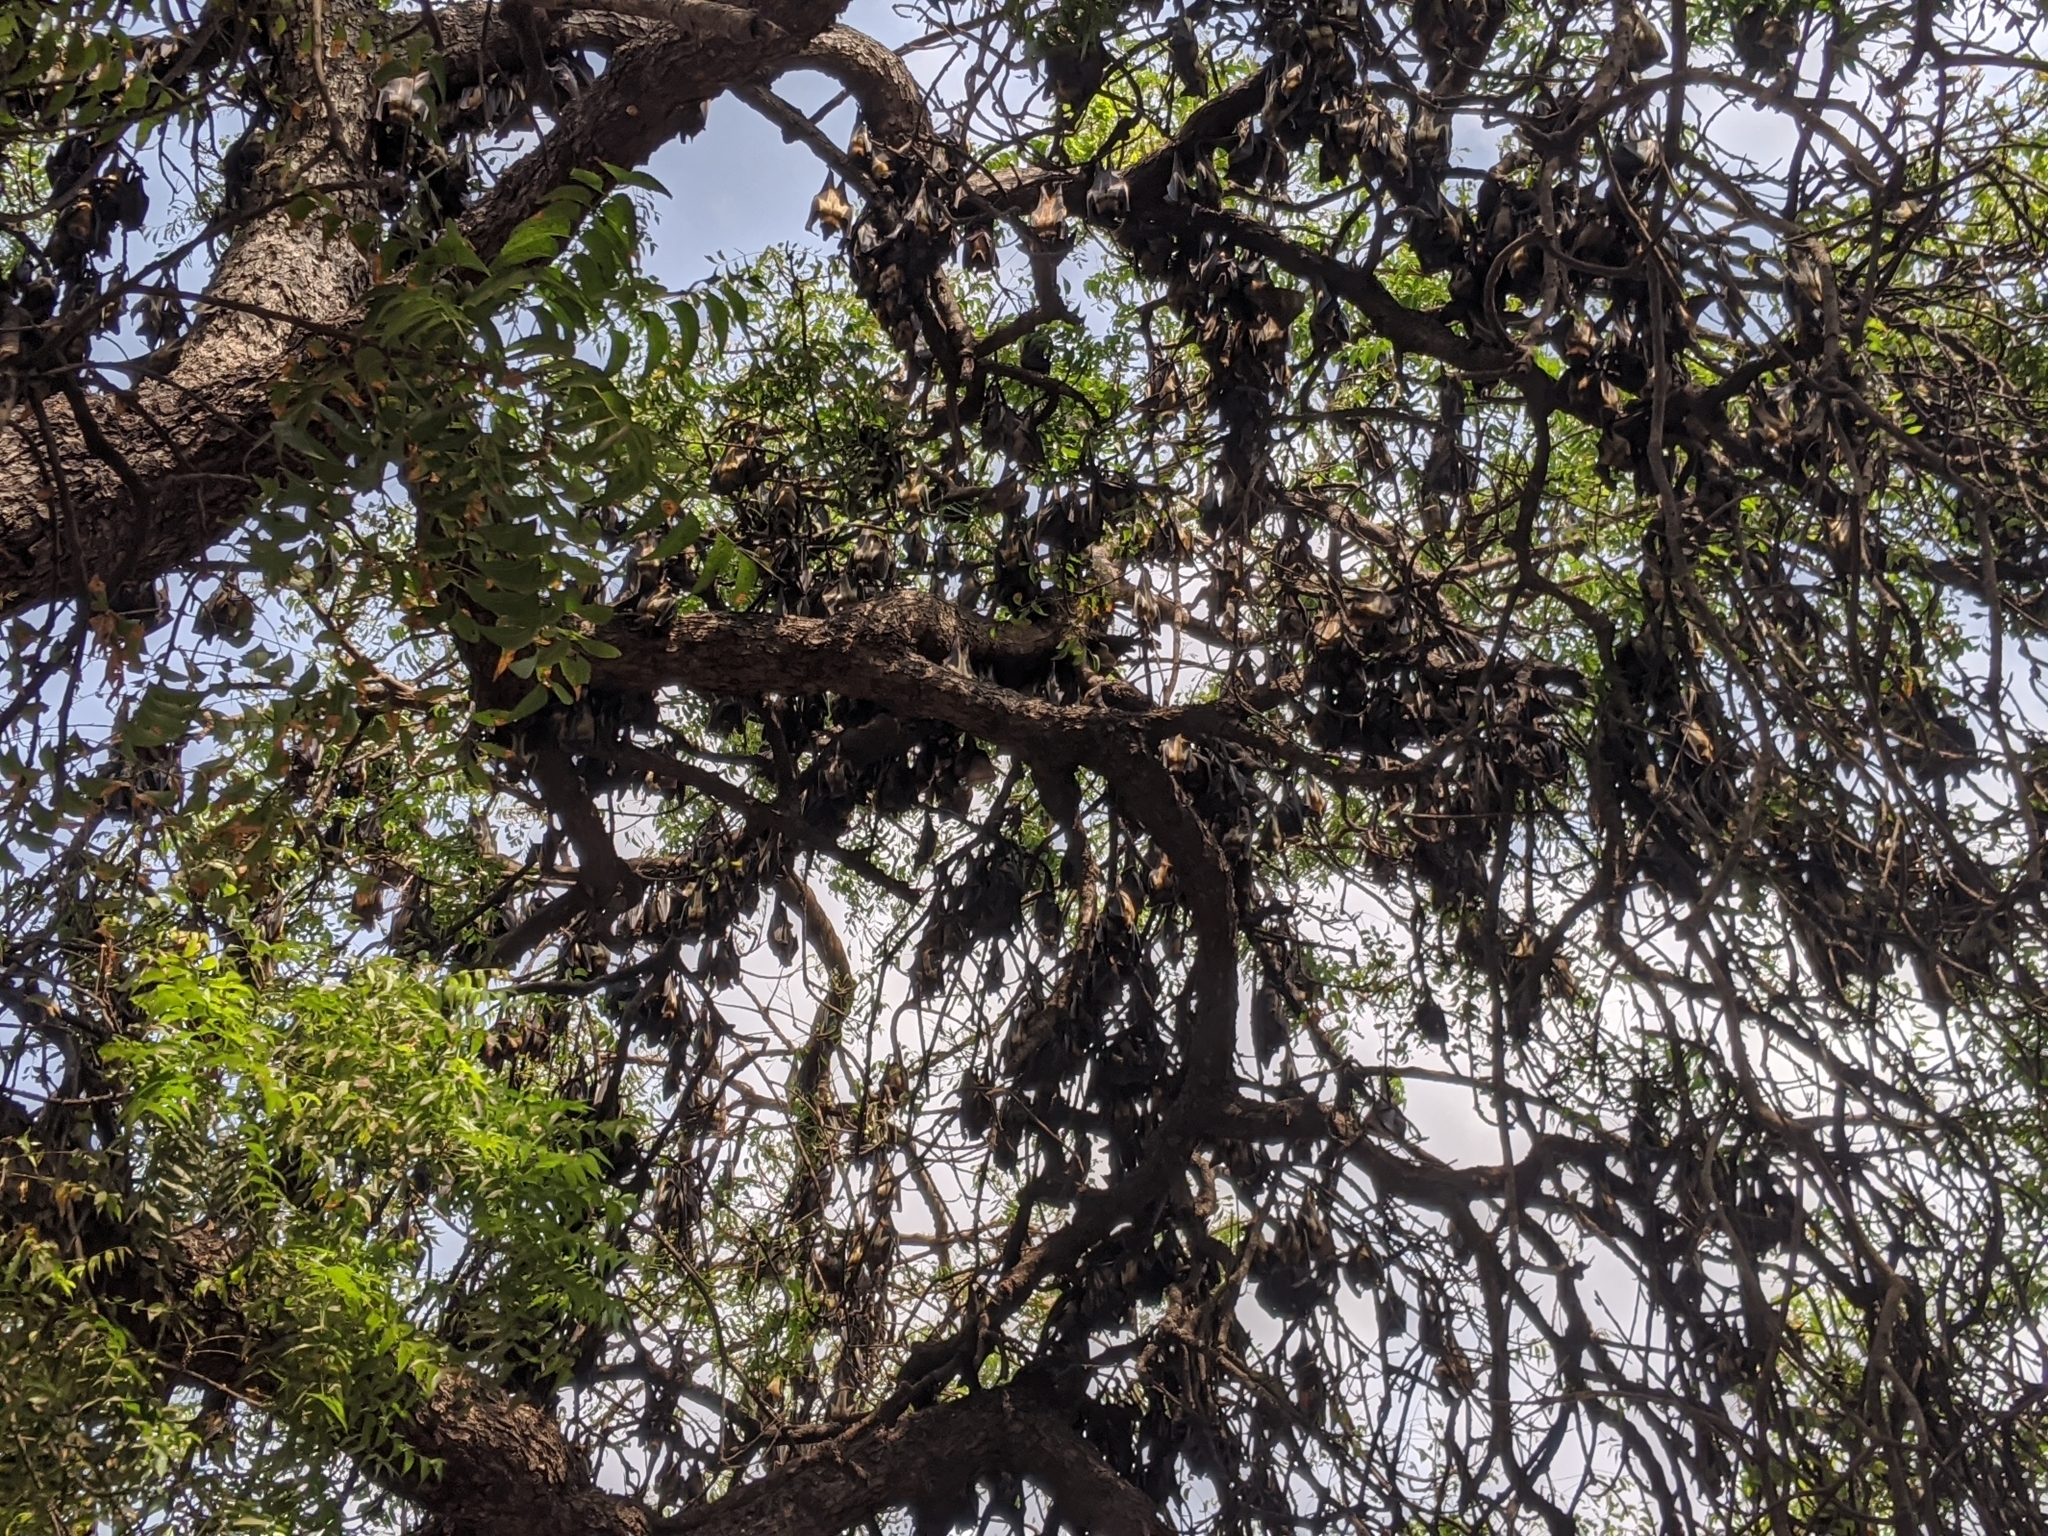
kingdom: Animalia
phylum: Chordata
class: Mammalia
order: Chiroptera
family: Pteropodidae
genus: Eidolon
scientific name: Eidolon helvum
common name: Straw-colored fruit bat
